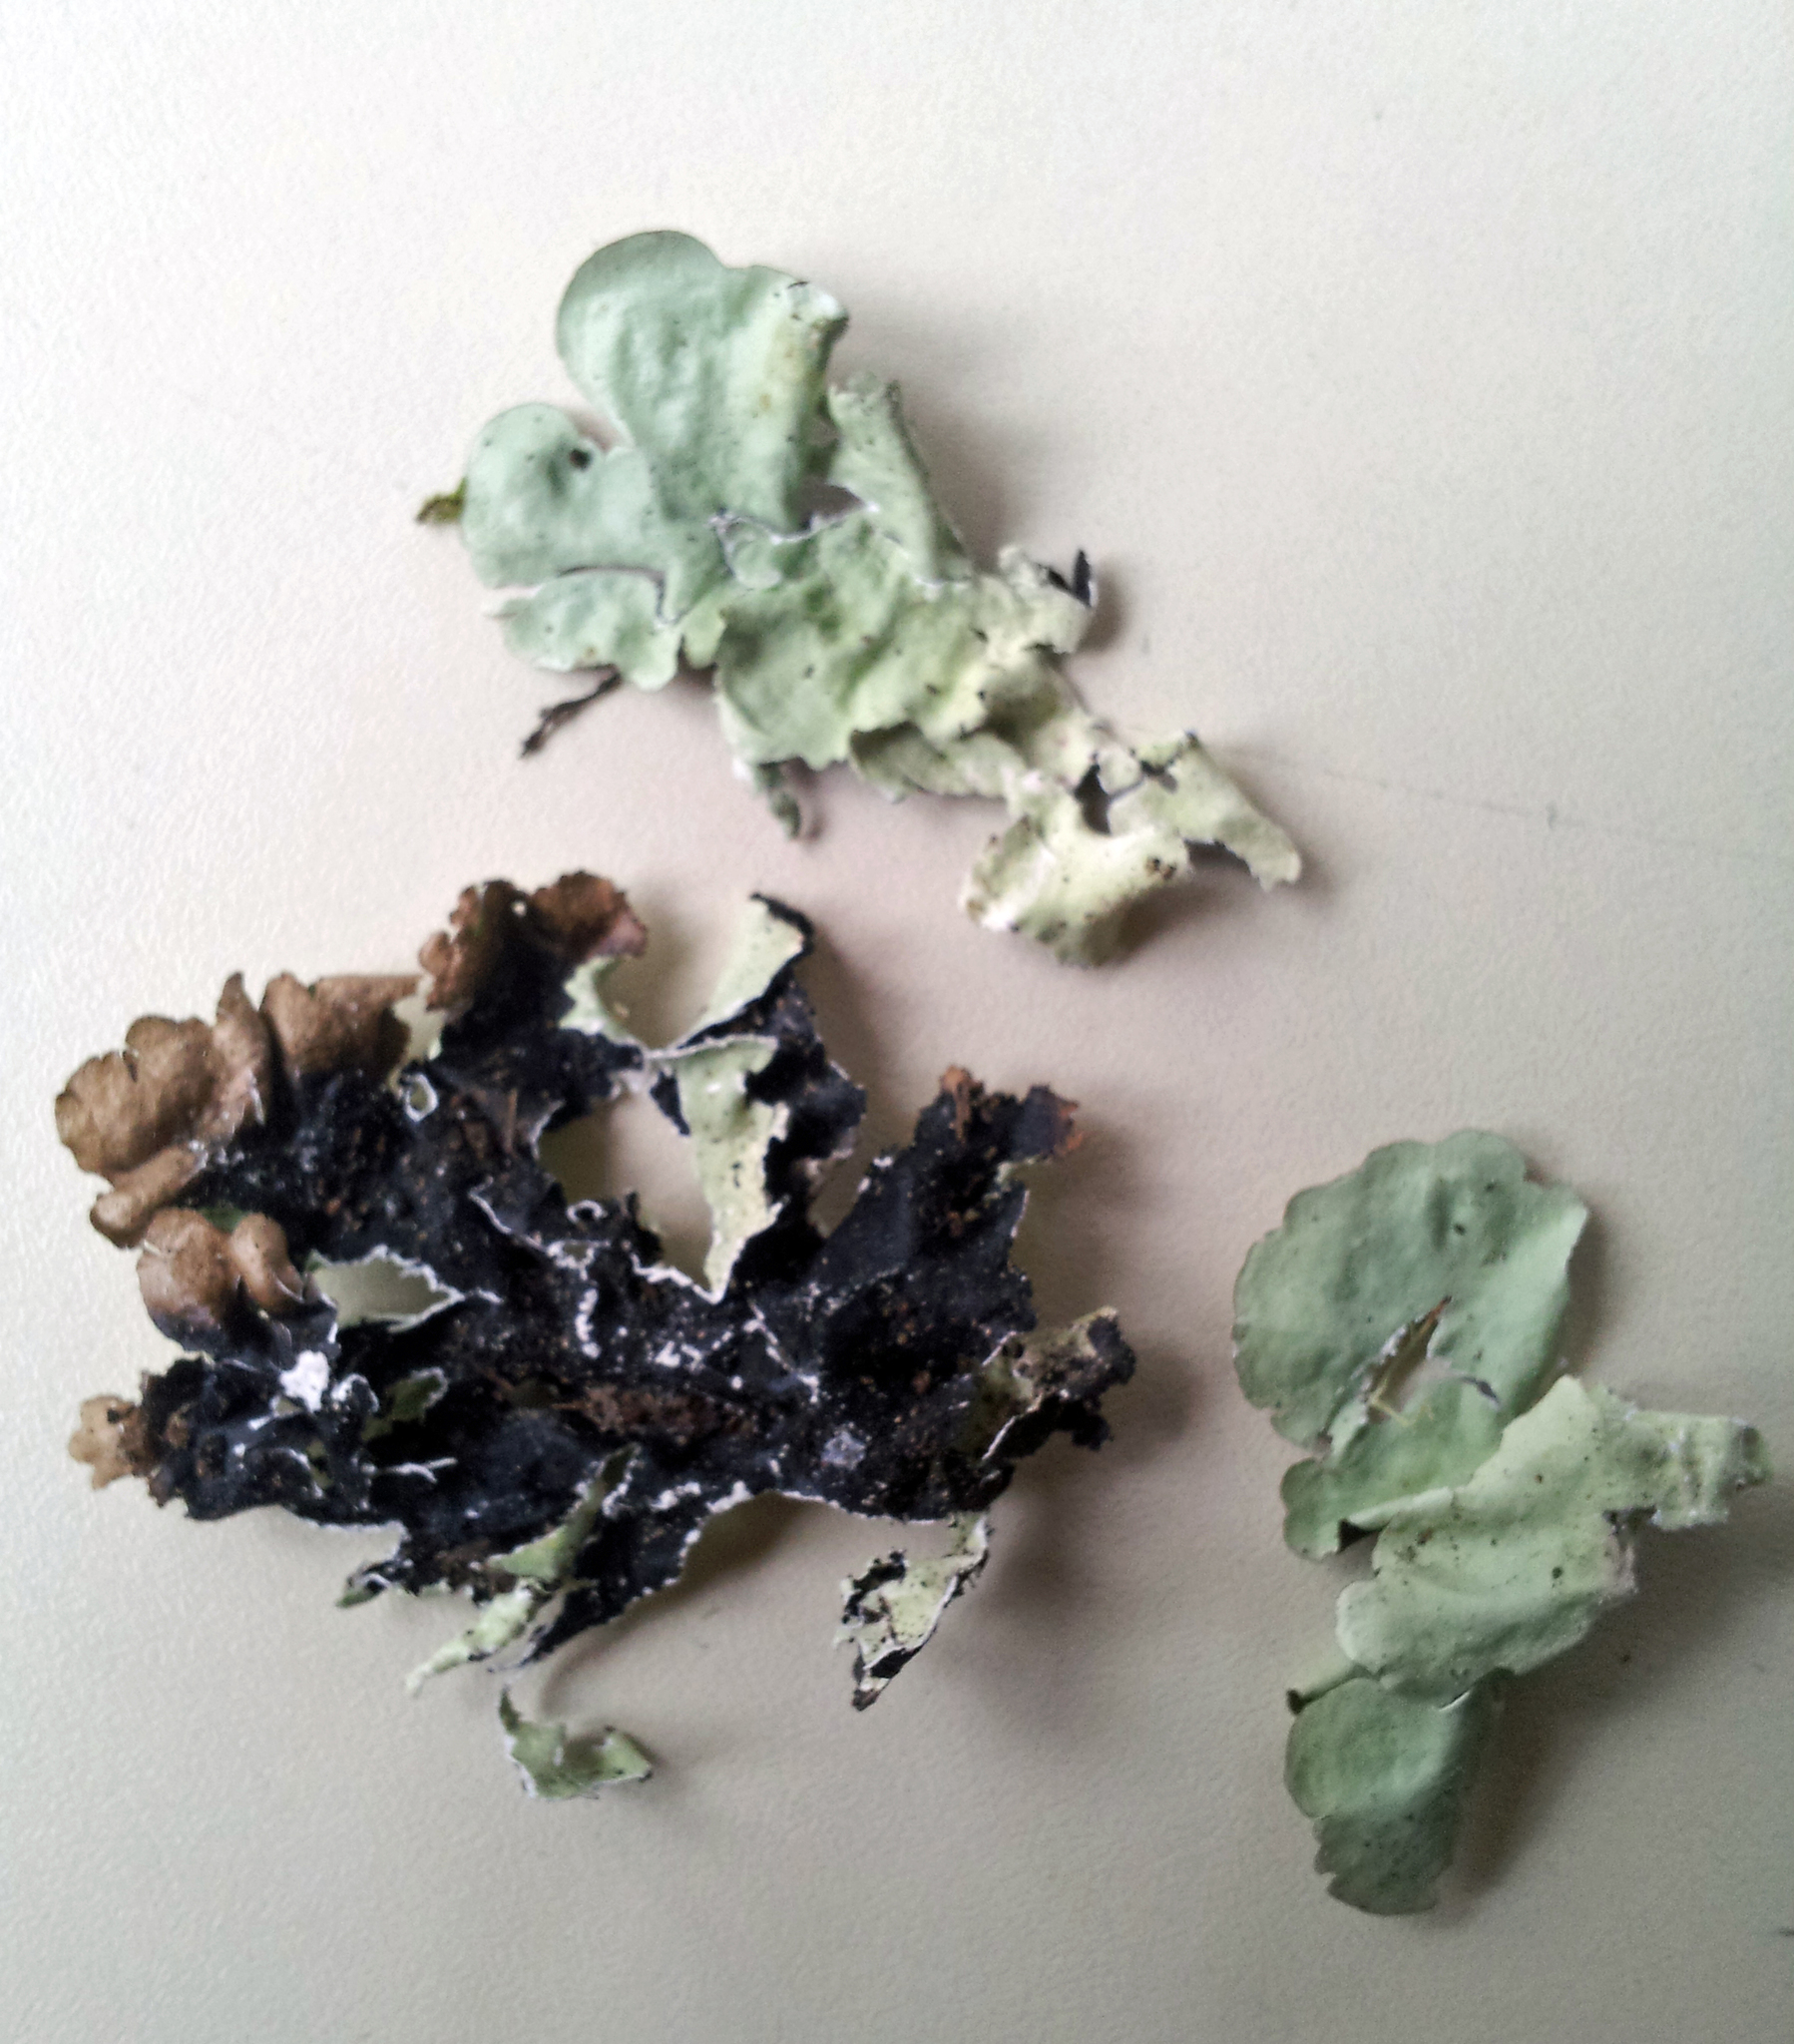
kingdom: Fungi
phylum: Ascomycota
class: Lecanoromycetes
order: Lecanorales
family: Parmeliaceae
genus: Parmotrema
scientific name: Parmotrema tinctorum
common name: Old gray ruffles
